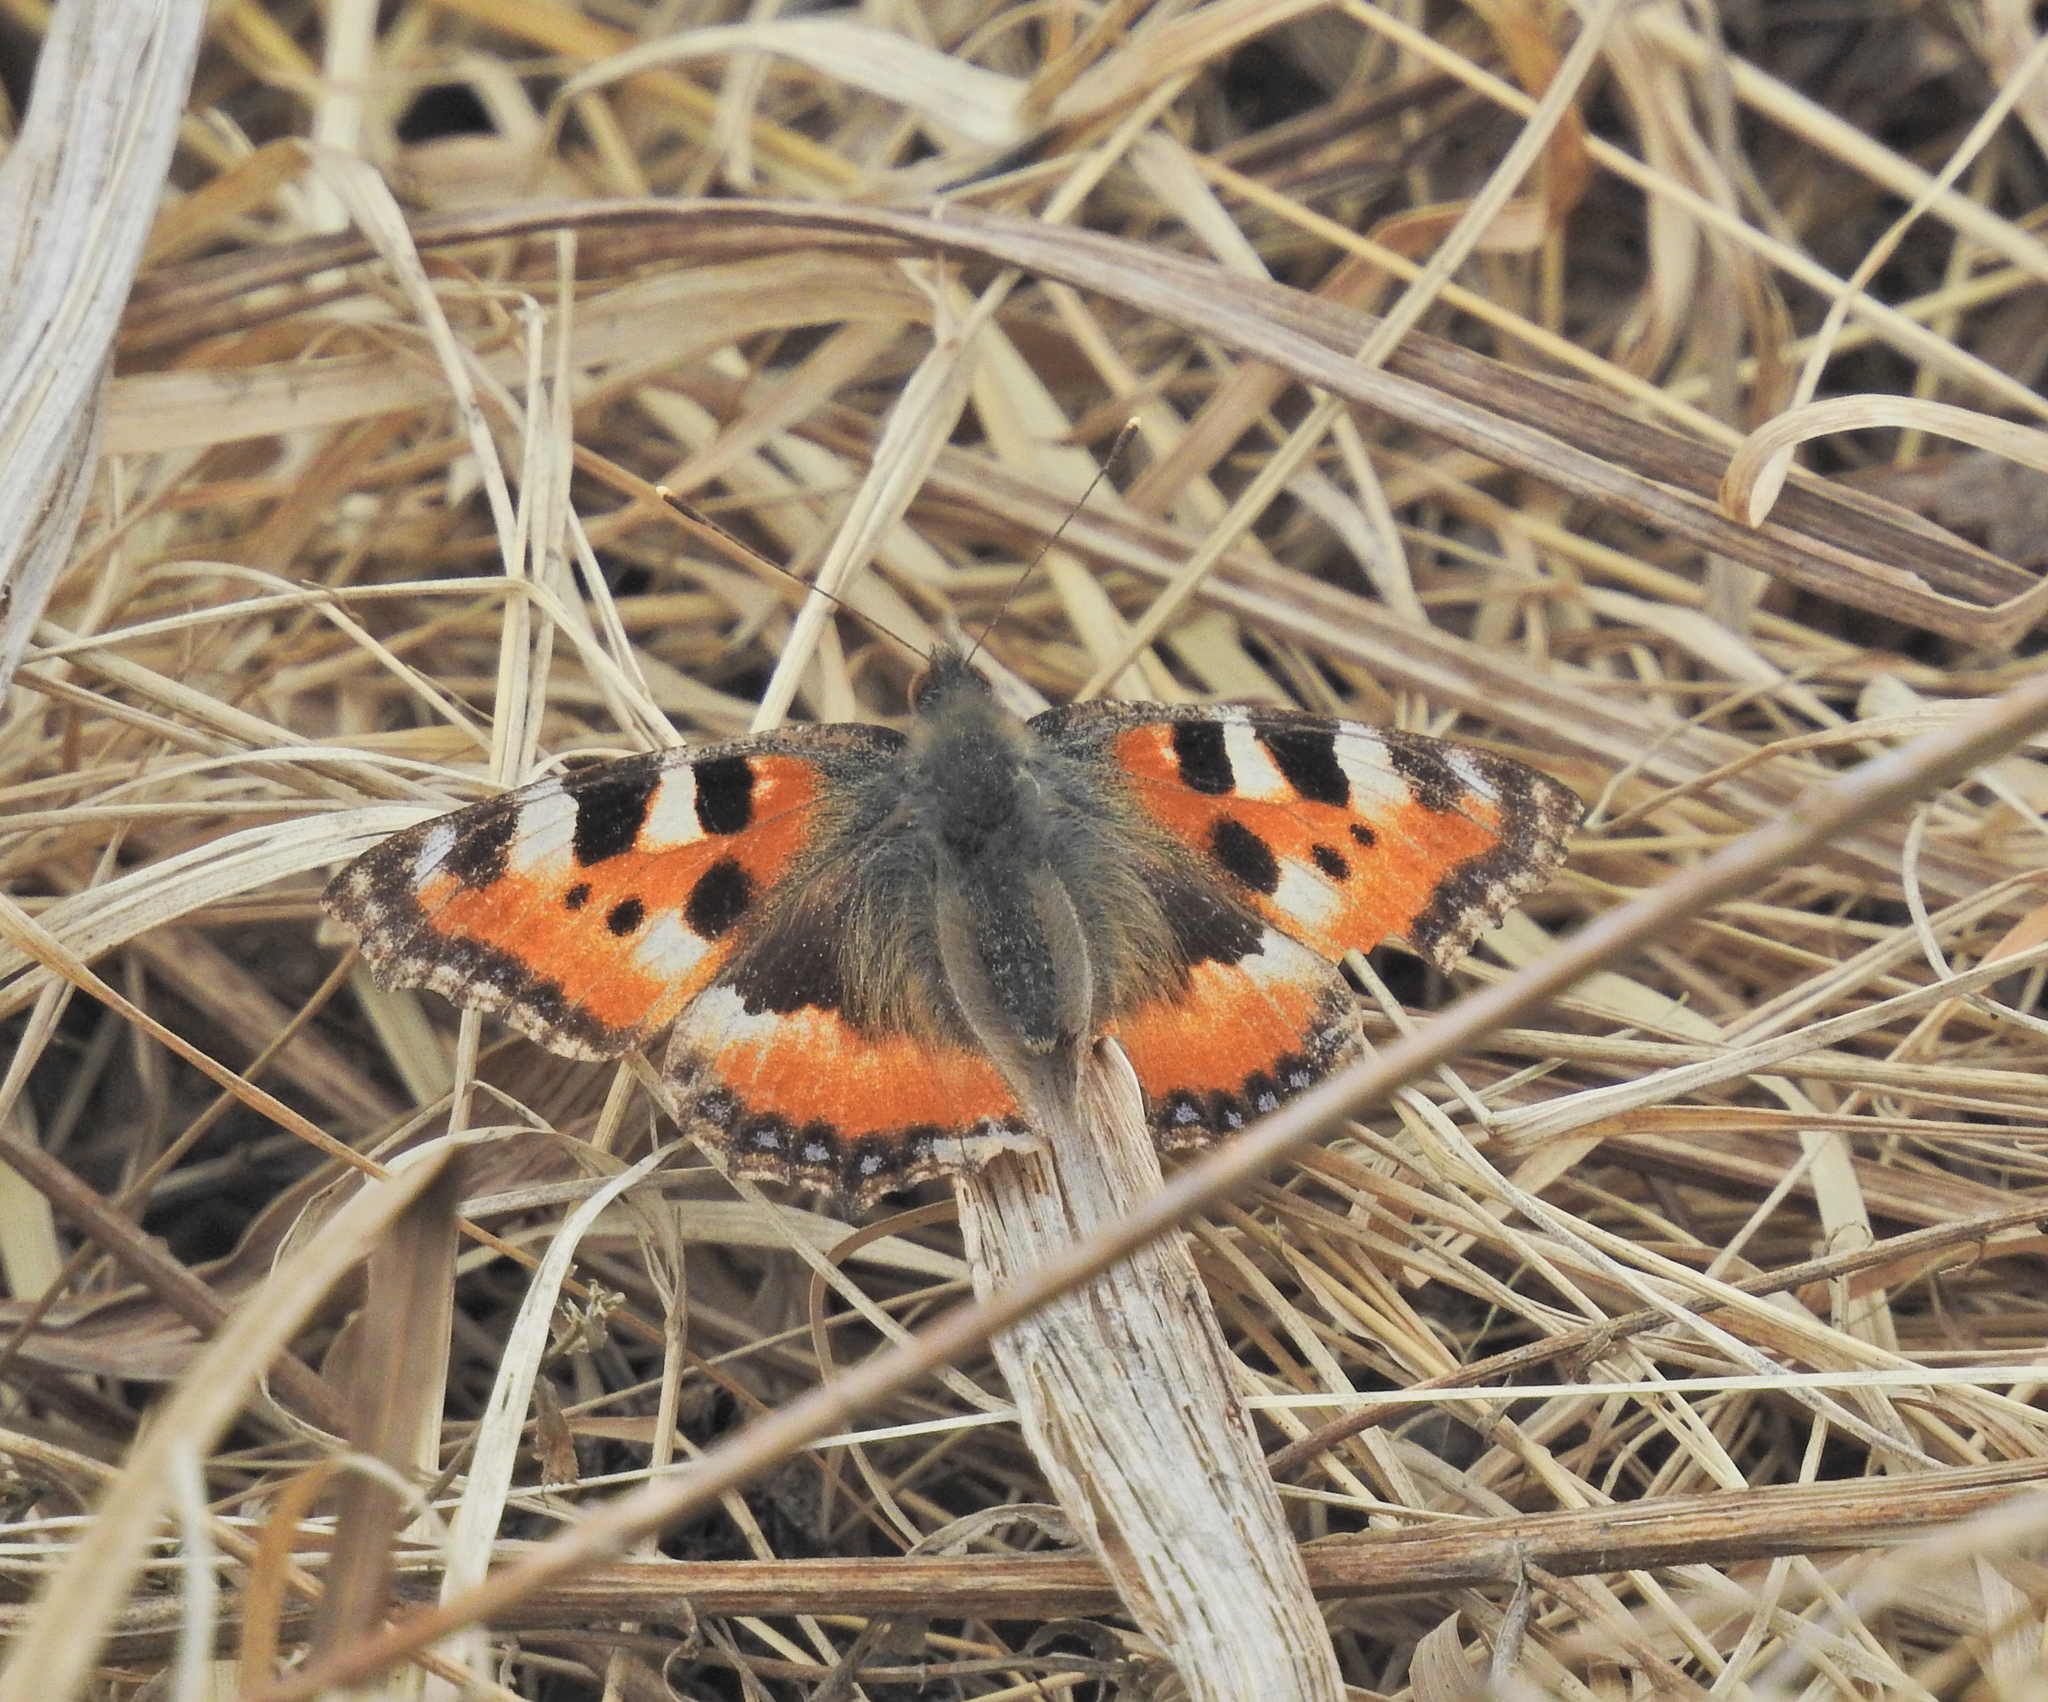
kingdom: Animalia
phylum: Arthropoda
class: Insecta
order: Lepidoptera
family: Nymphalidae
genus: Aglais
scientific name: Aglais urticae
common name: Small tortoiseshell
